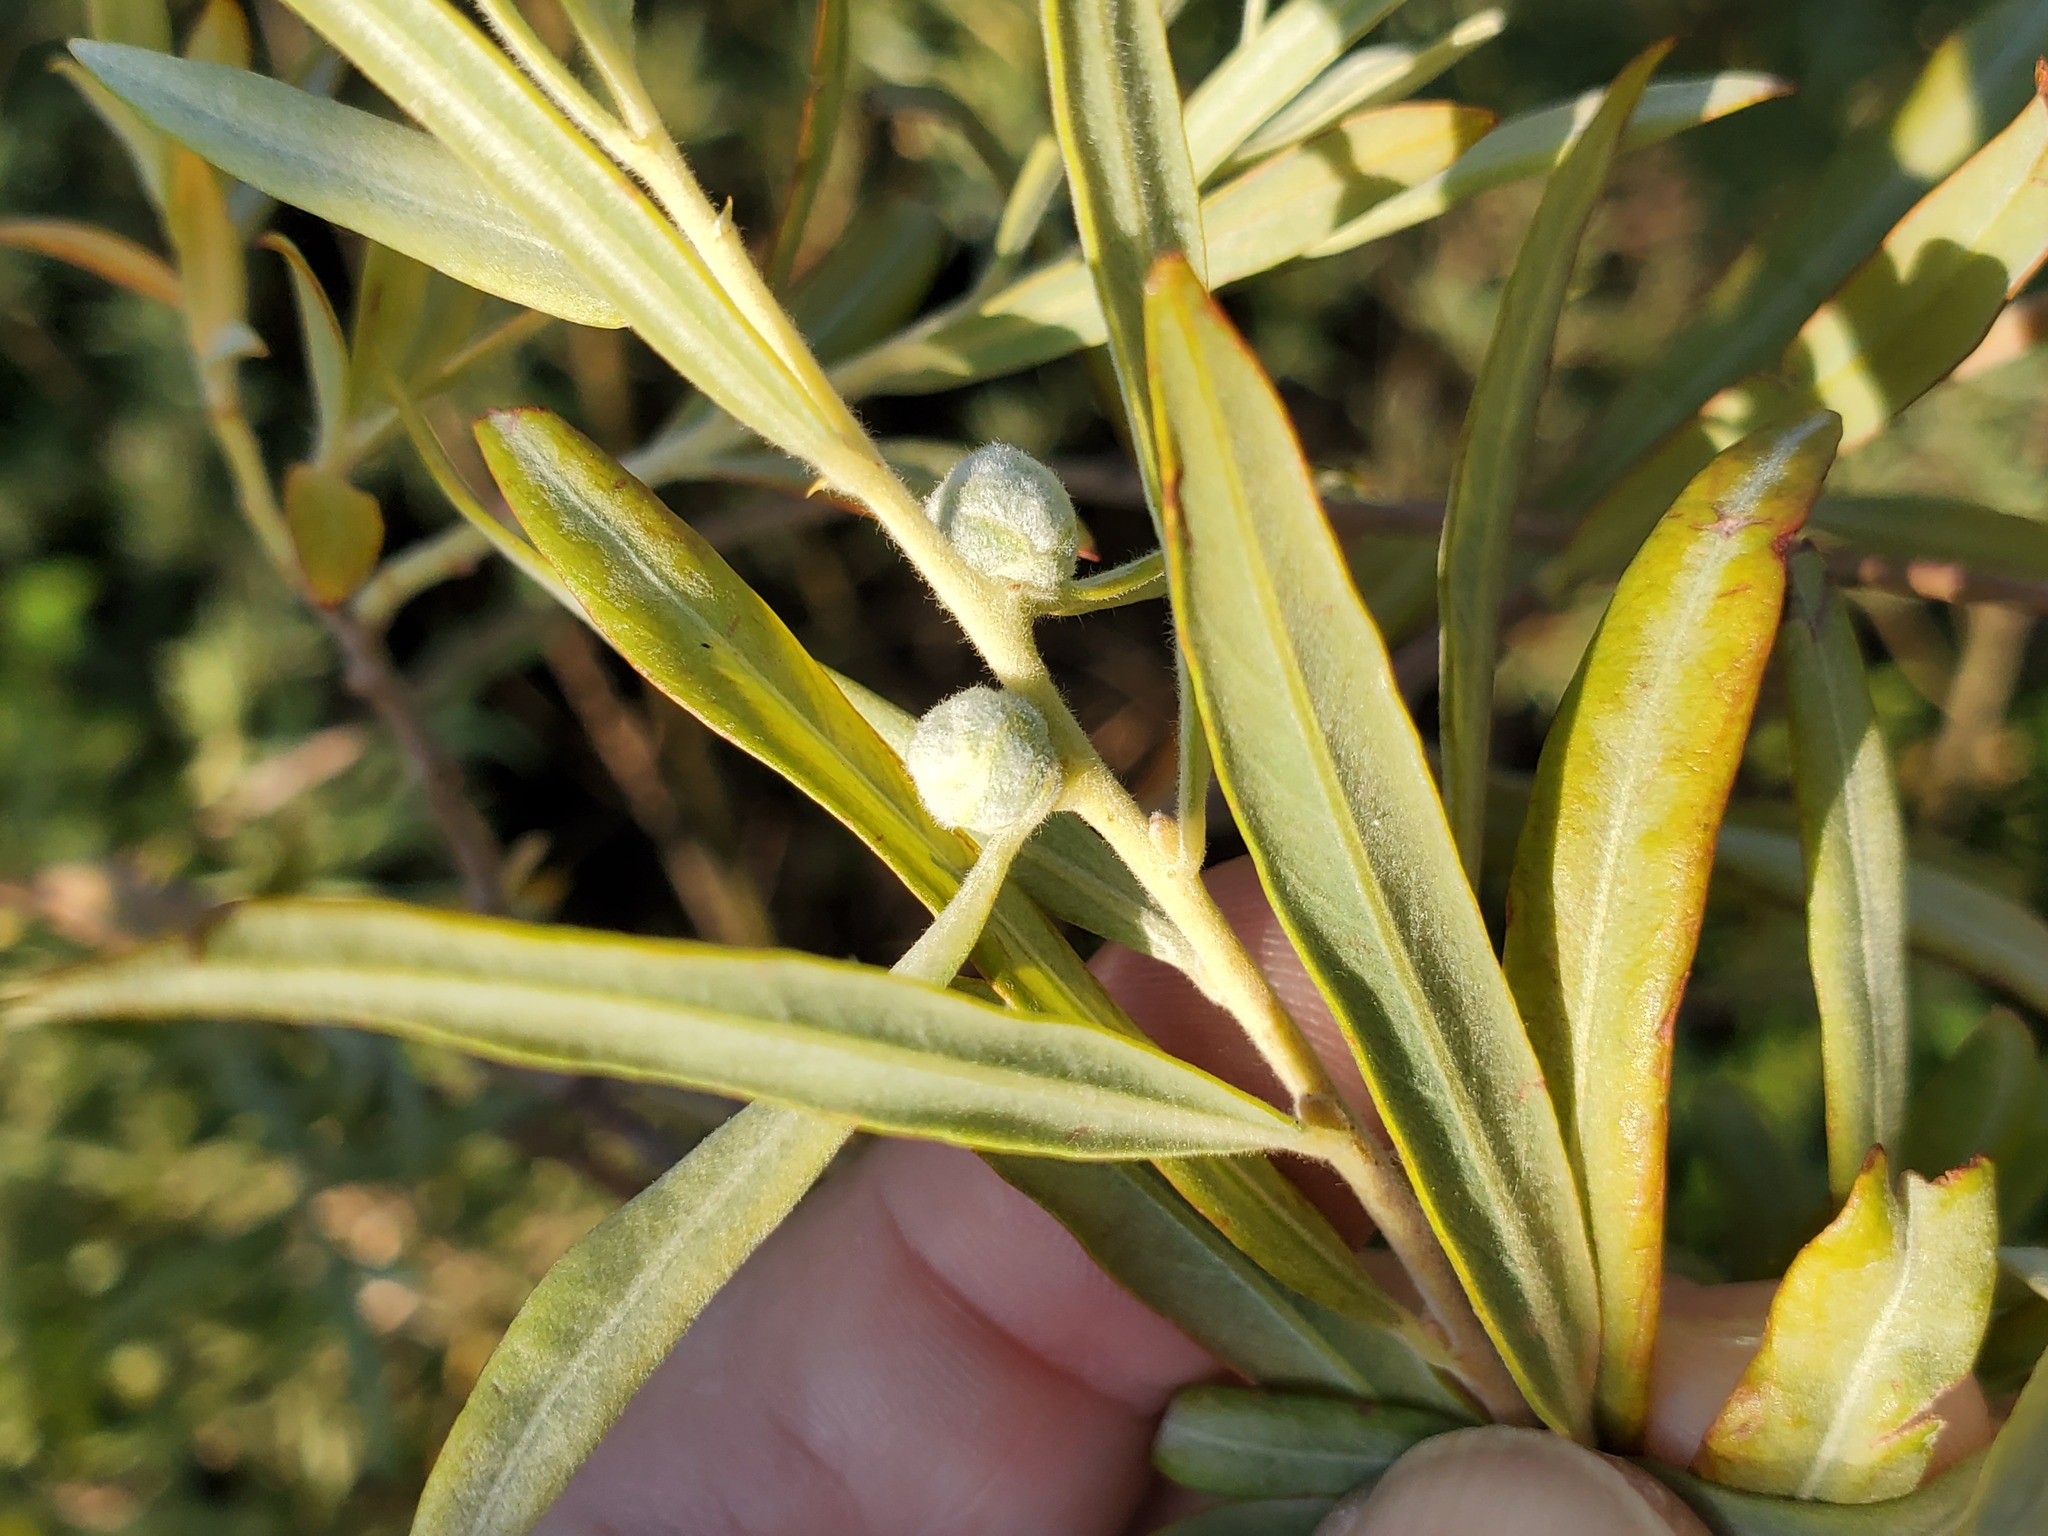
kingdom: Animalia
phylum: Arthropoda
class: Insecta
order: Diptera
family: Cecidomyiidae
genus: Rabdophaga
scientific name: Rabdophaga strobiloides
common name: Willow pinecone gall midge
